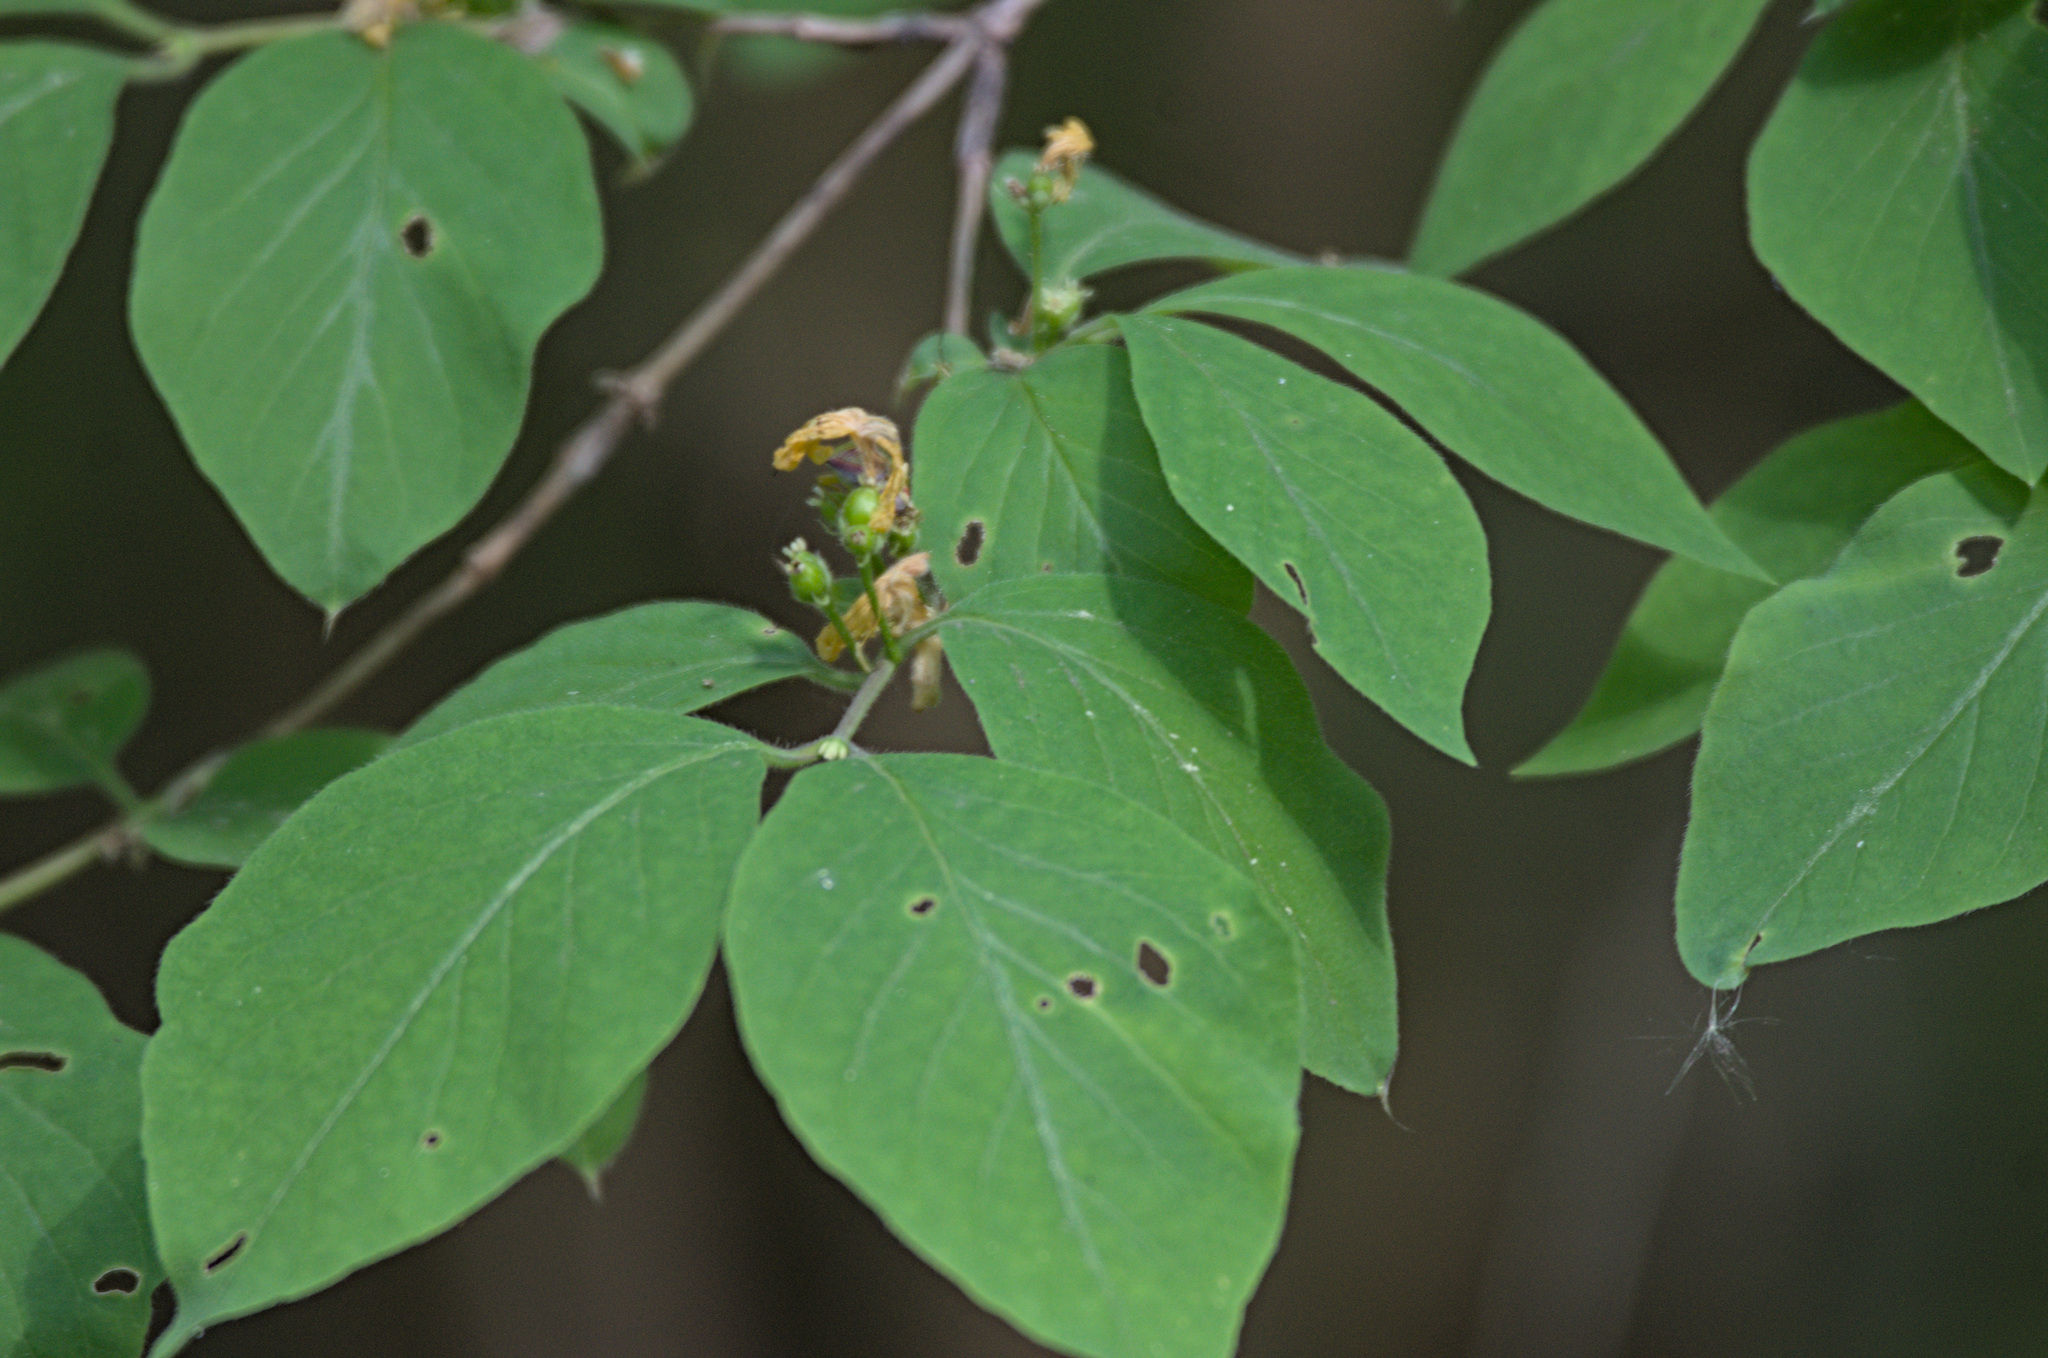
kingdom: Plantae
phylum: Tracheophyta
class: Magnoliopsida
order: Dipsacales
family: Caprifoliaceae
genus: Lonicera
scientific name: Lonicera xylosteum
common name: Fly honeysuckle
